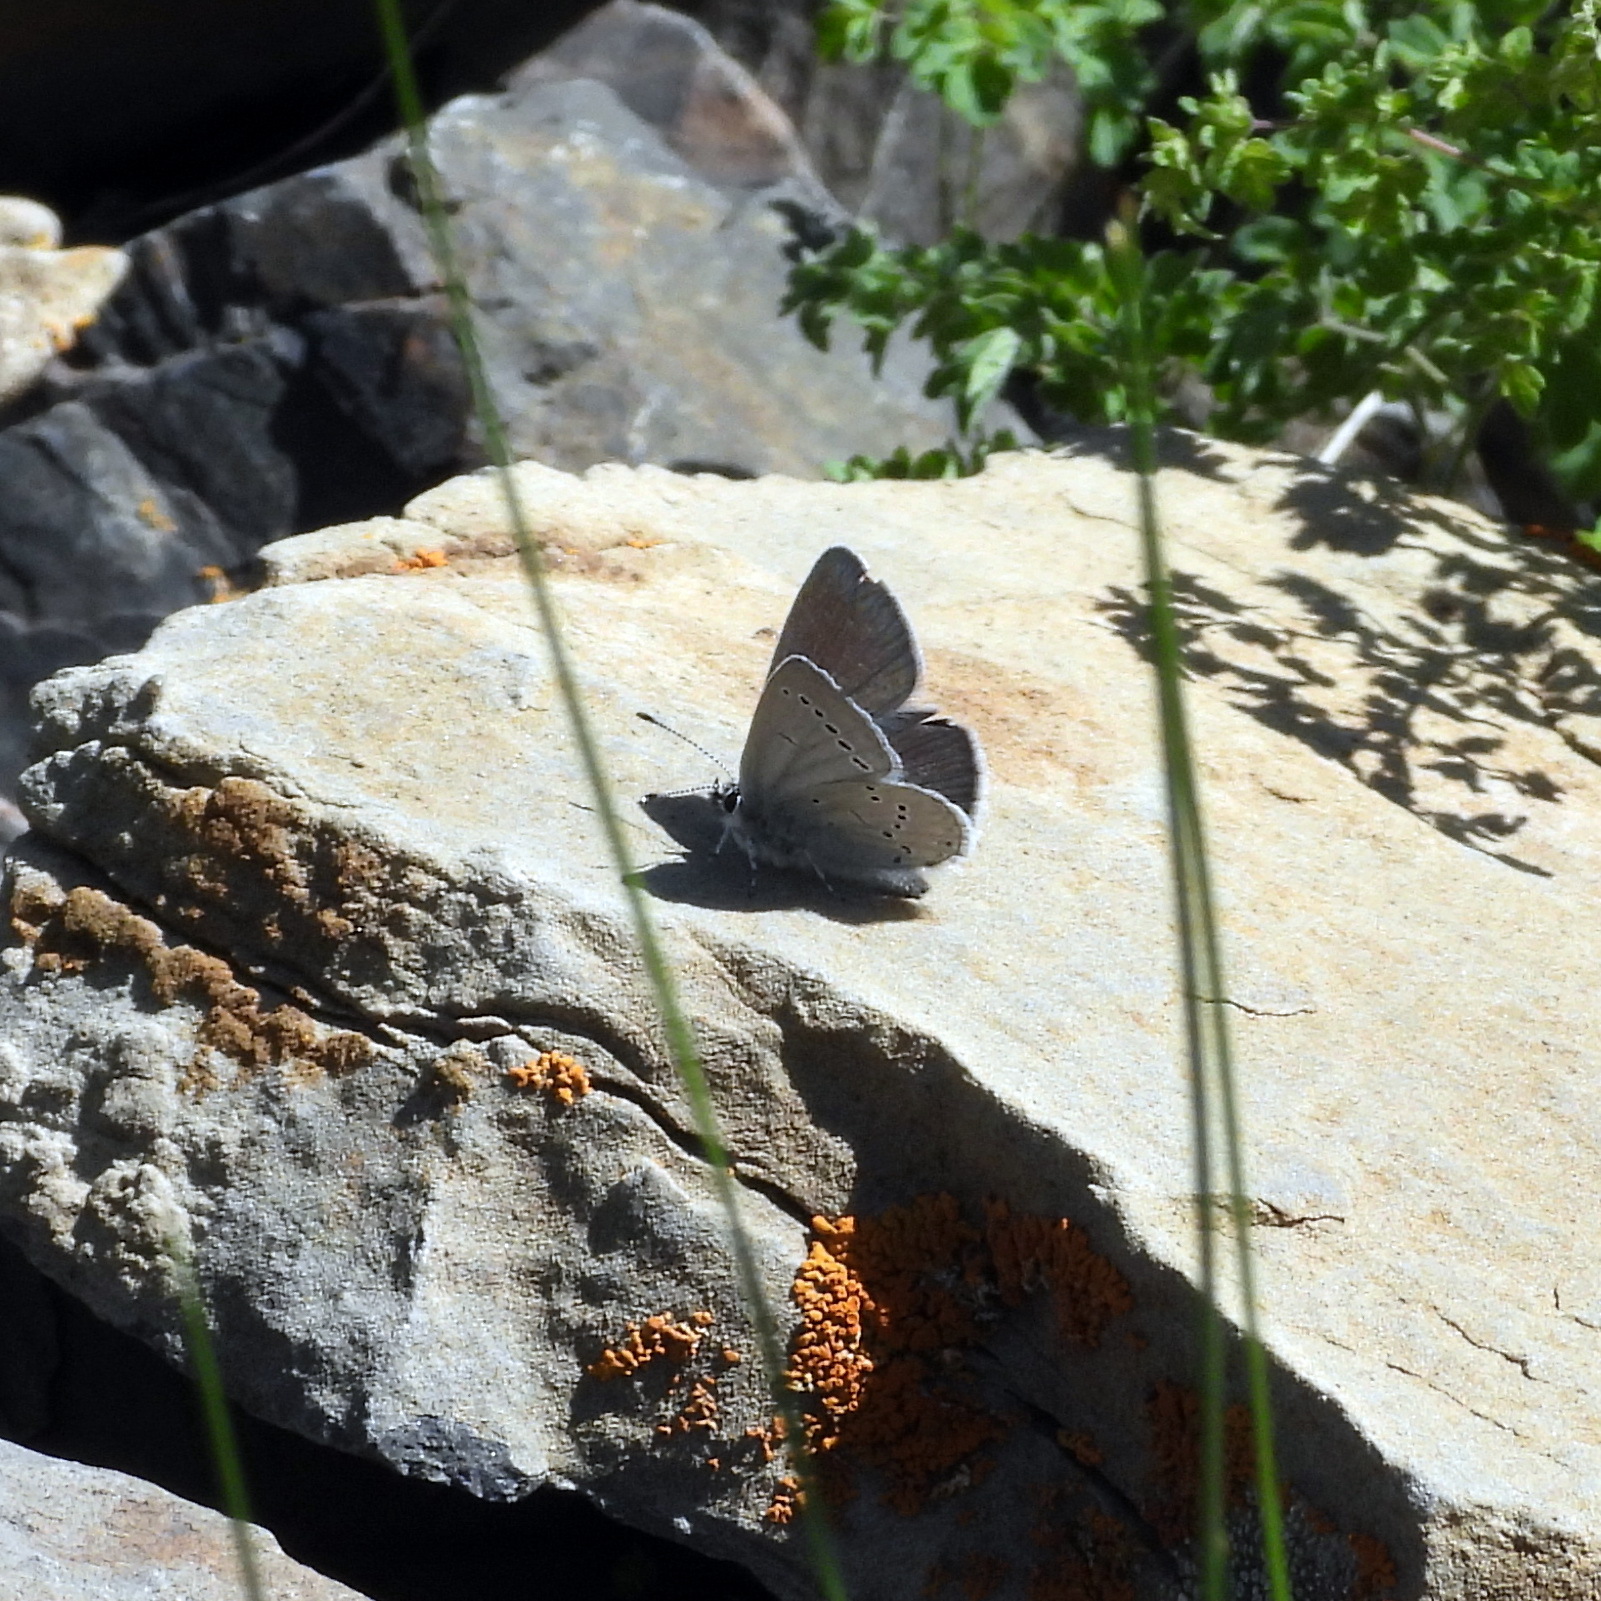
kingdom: Animalia
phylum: Arthropoda
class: Insecta
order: Lepidoptera
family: Lycaenidae
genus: Cupido
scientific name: Cupido minimus
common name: Small blue
